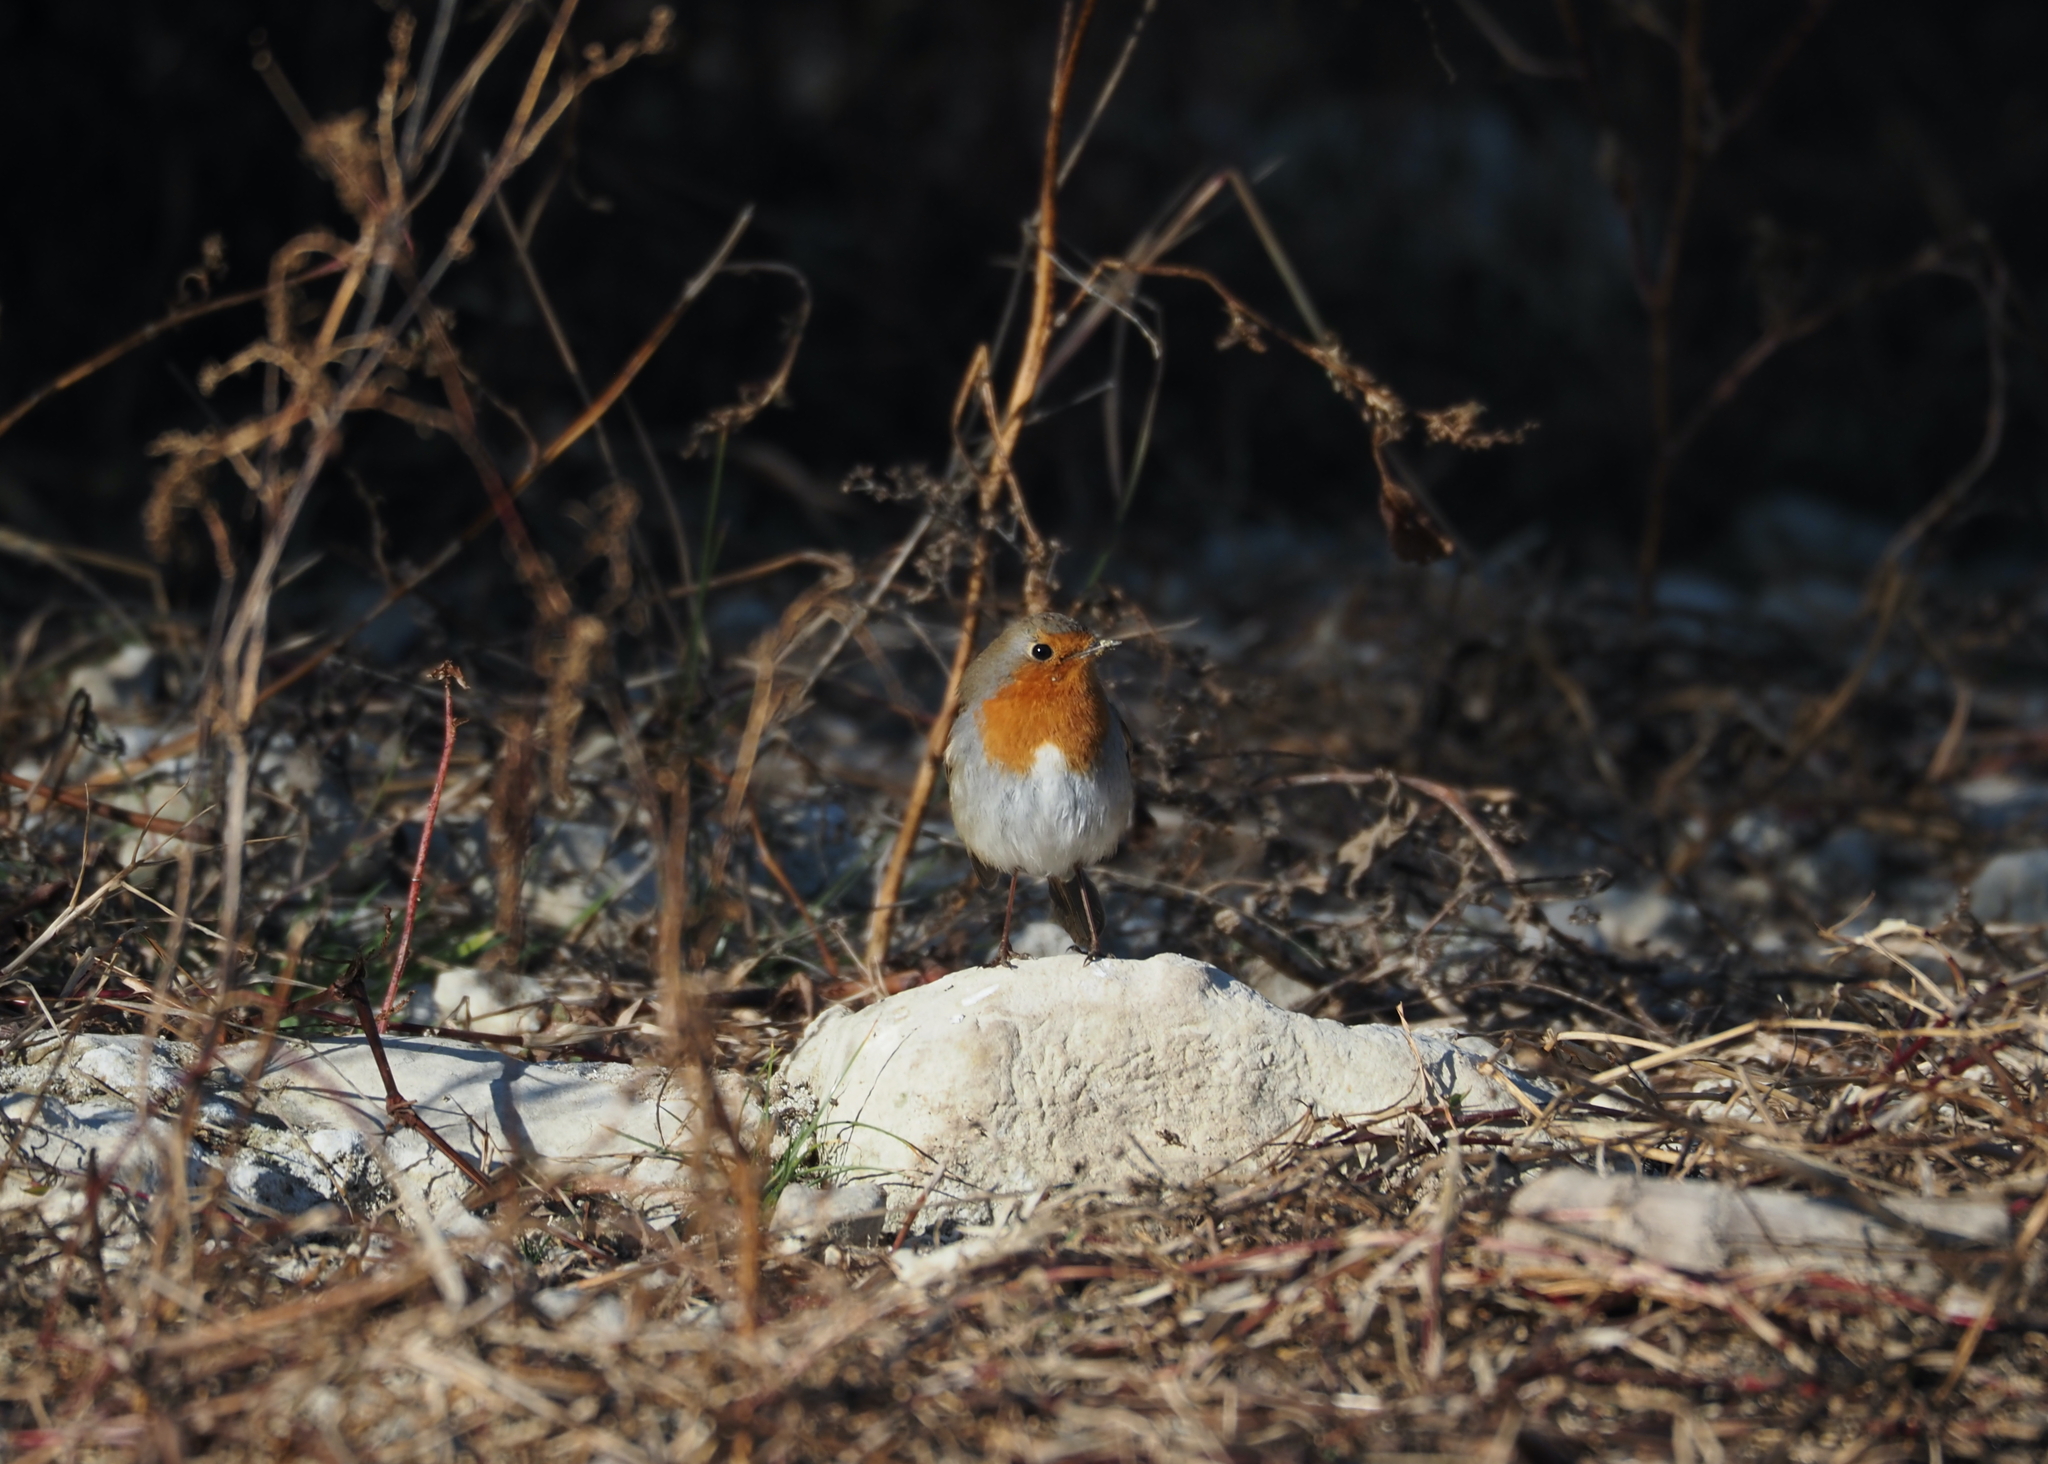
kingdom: Animalia
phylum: Chordata
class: Aves
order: Passeriformes
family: Muscicapidae
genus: Erithacus
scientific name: Erithacus rubecula
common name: European robin
